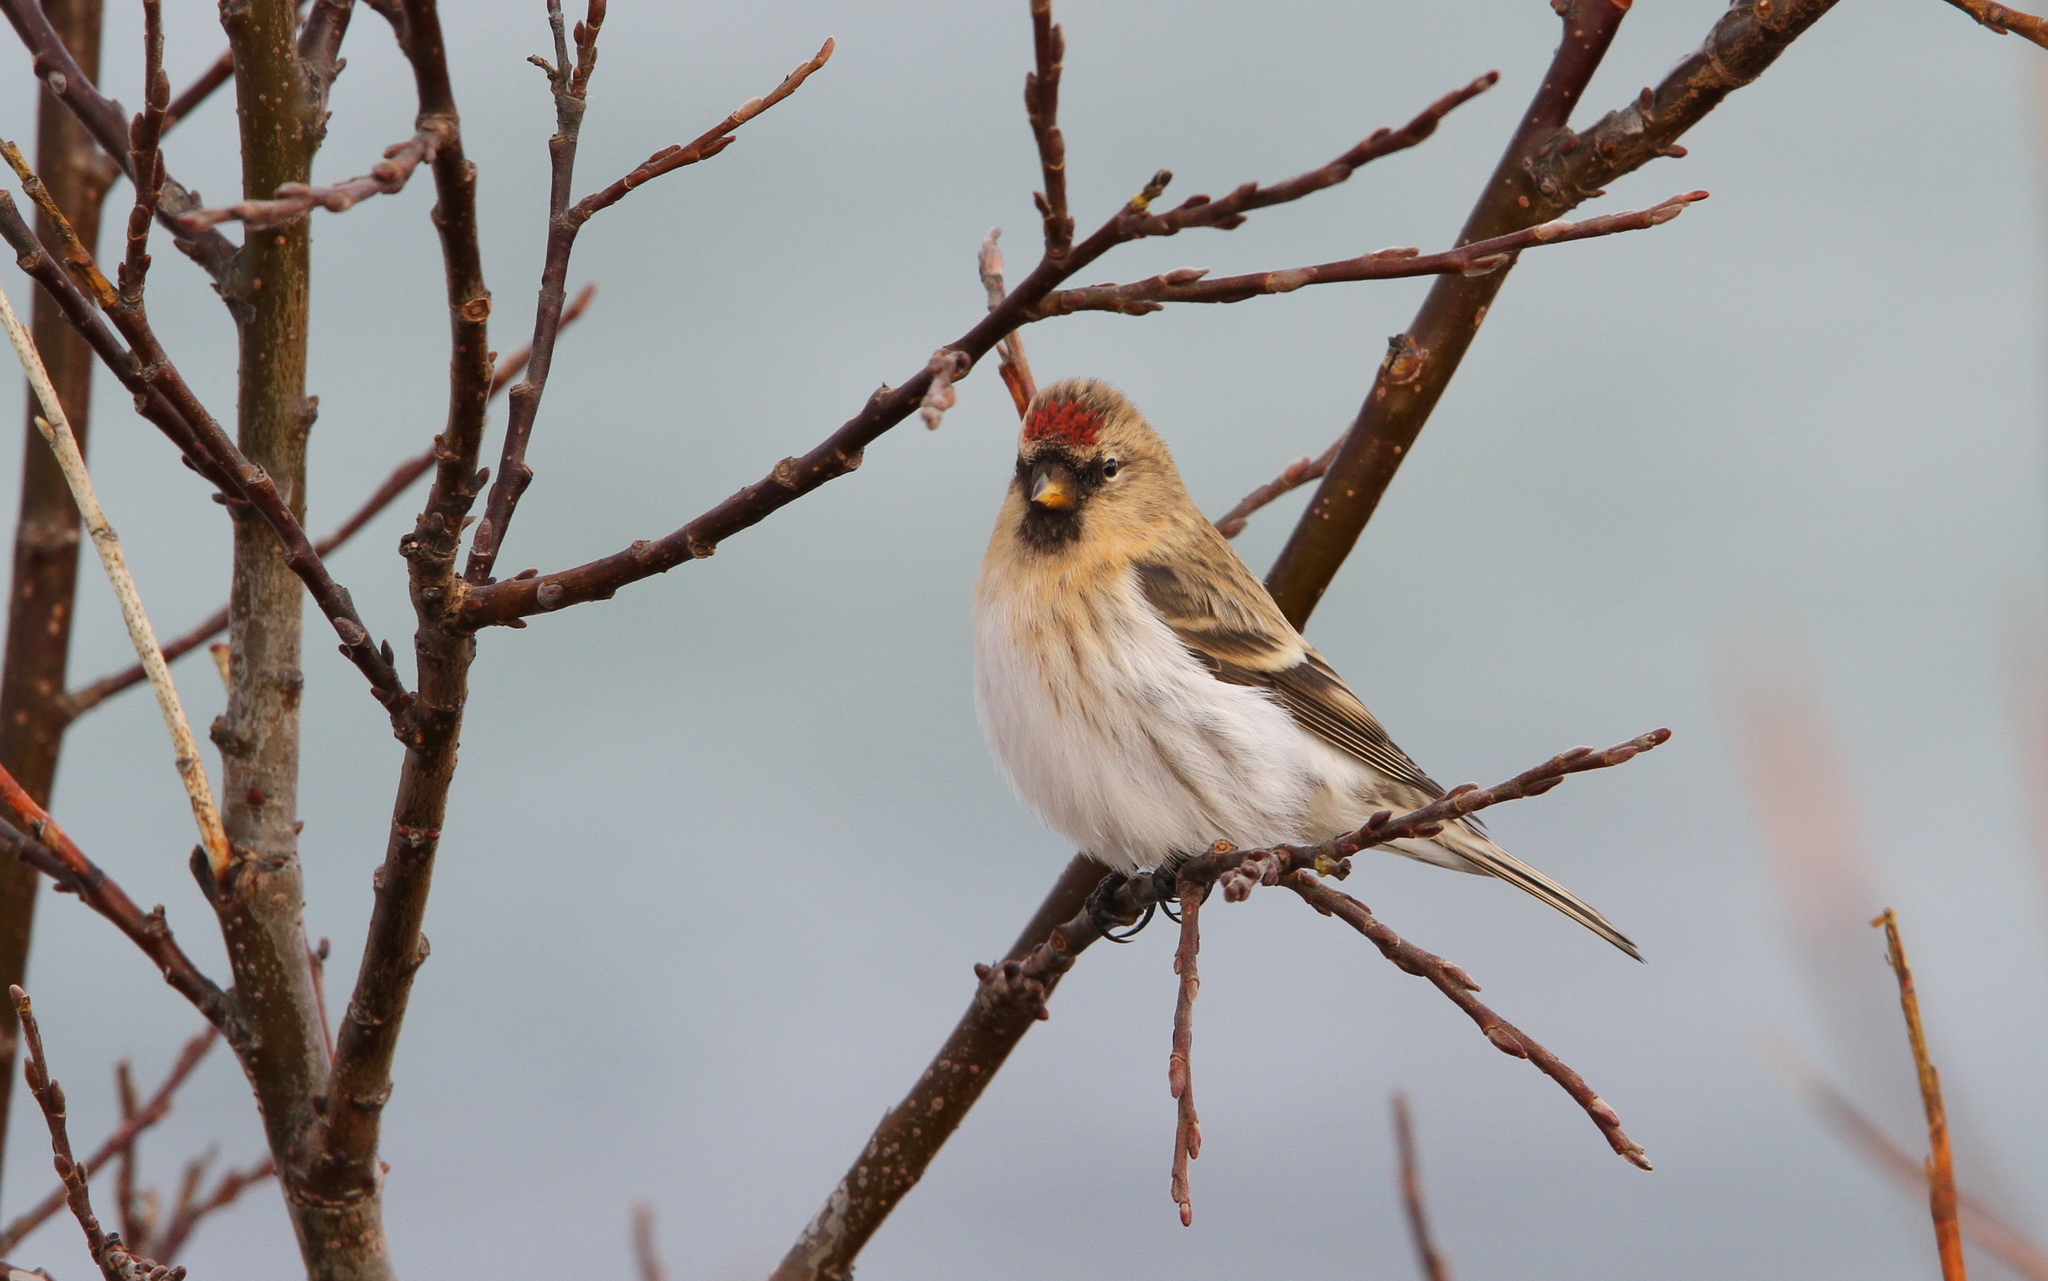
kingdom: Animalia
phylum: Chordata
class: Aves
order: Passeriformes
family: Fringillidae
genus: Acanthis
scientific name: Acanthis flammea
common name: Common redpoll
